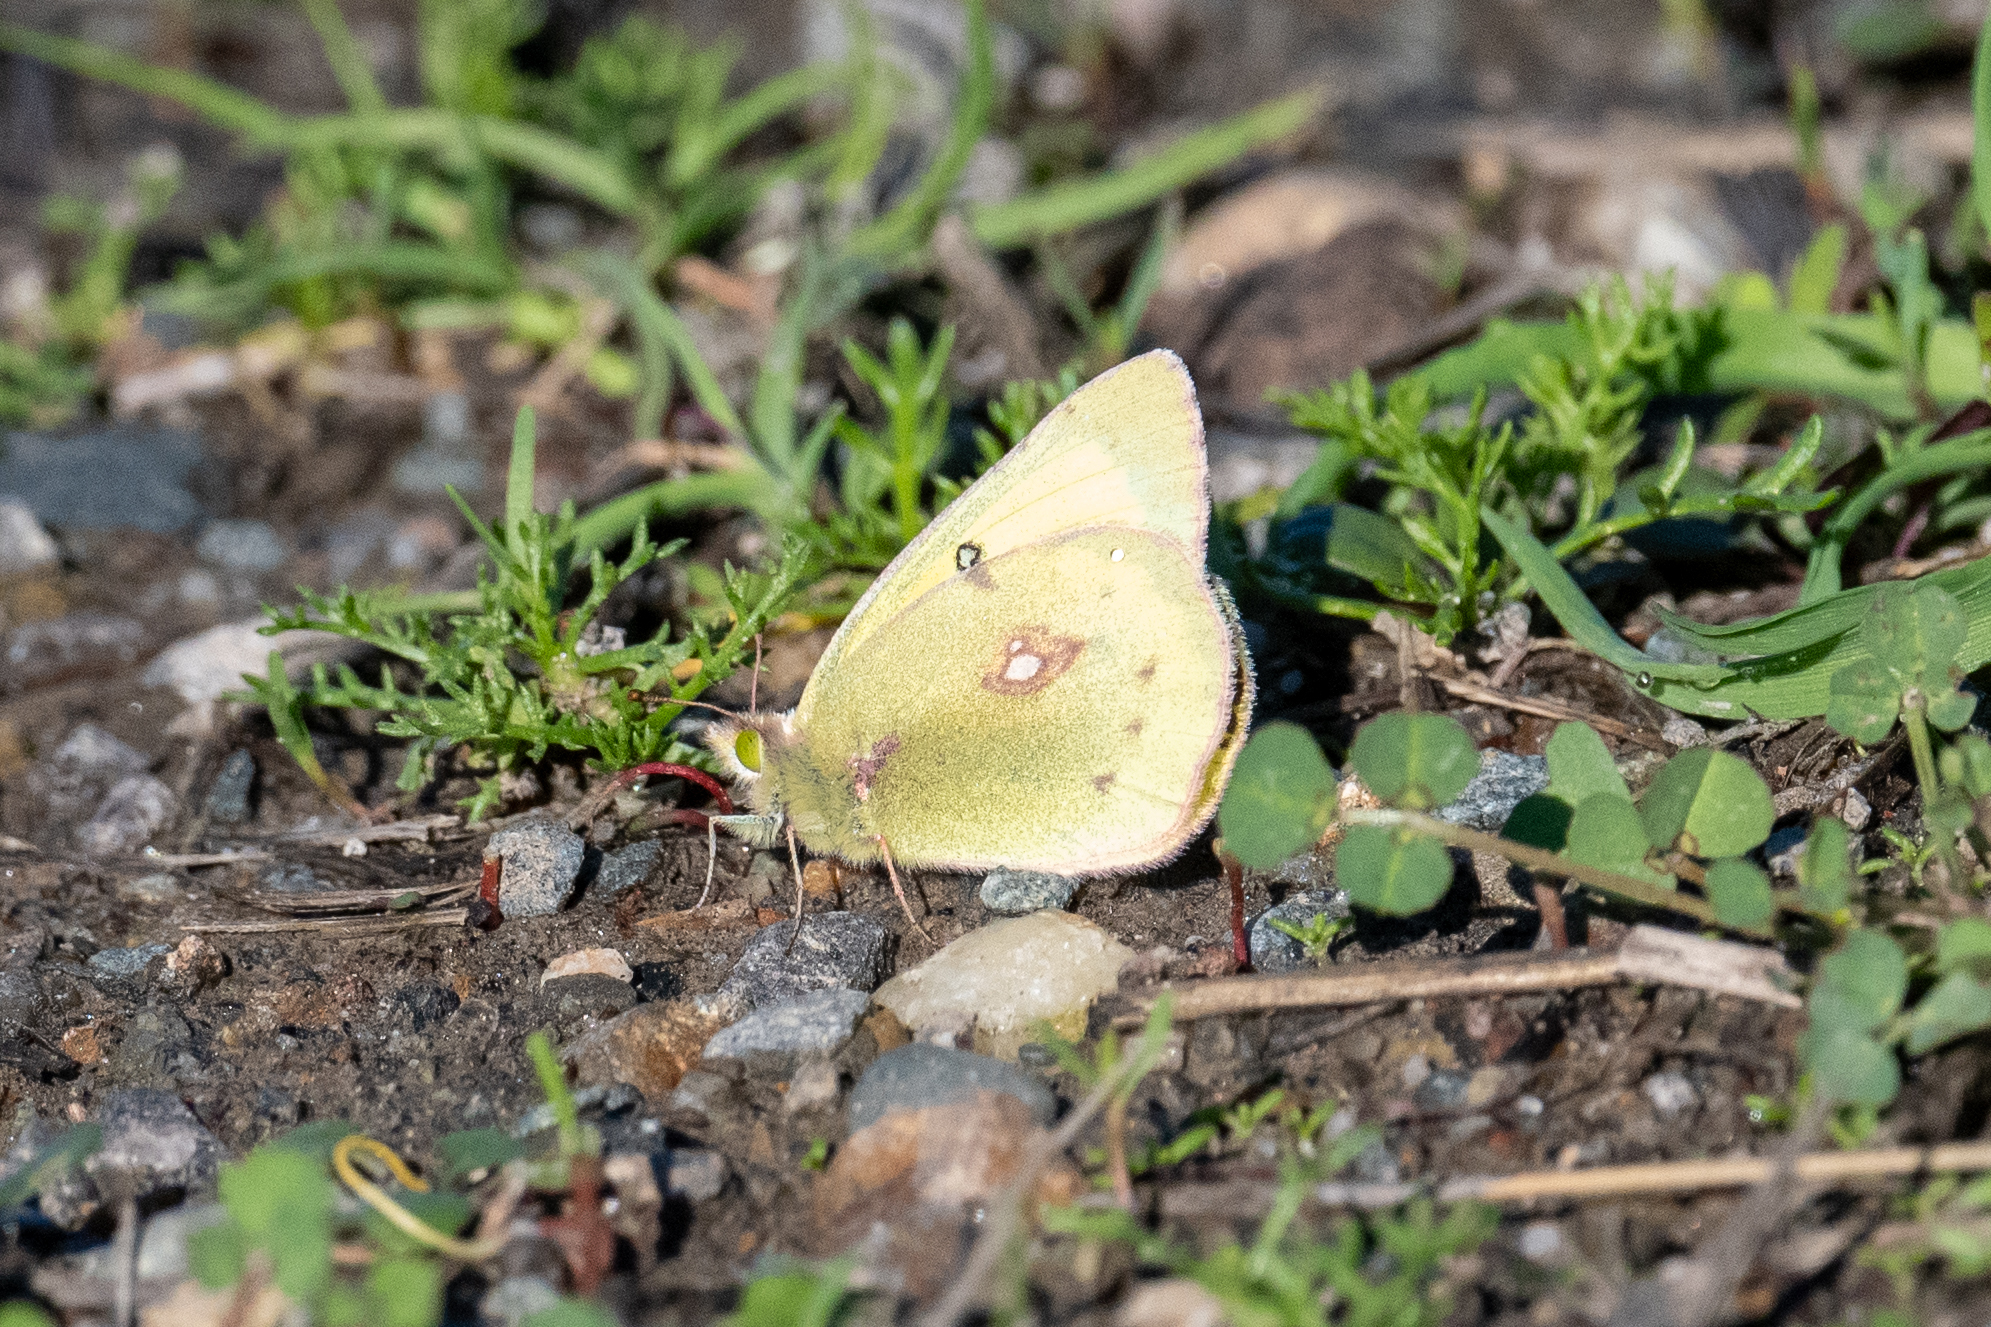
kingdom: Animalia
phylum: Arthropoda
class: Insecta
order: Lepidoptera
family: Pieridae
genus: Colias
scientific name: Colias eurytheme
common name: Alfalfa butterfly
